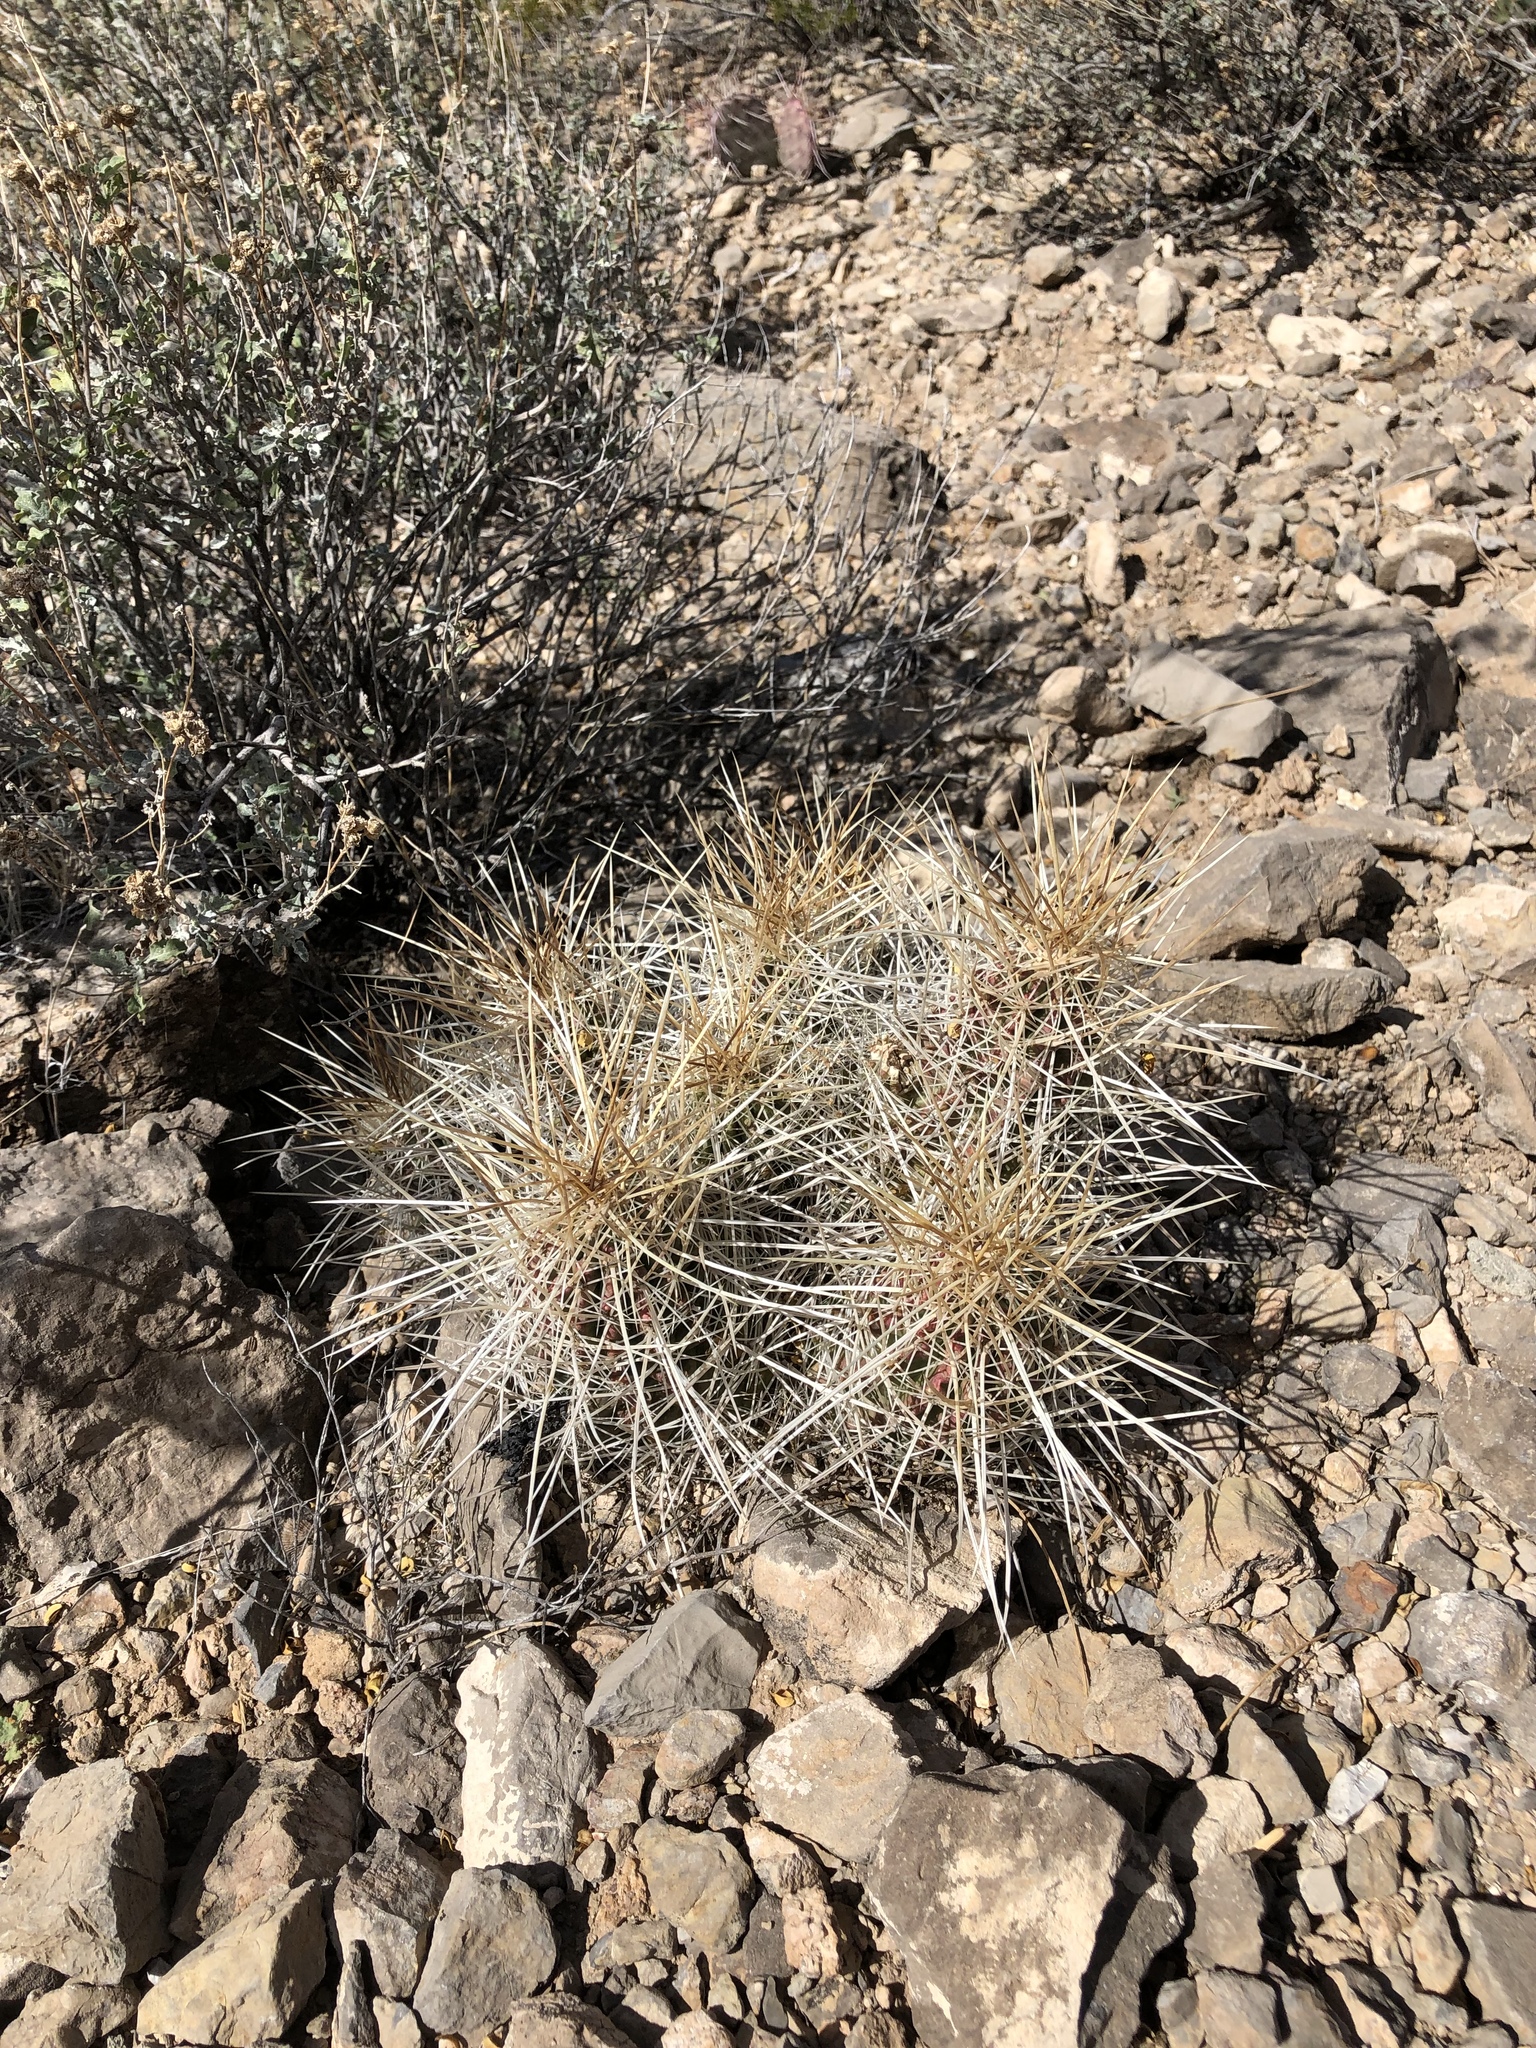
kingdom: Plantae
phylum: Tracheophyta
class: Magnoliopsida
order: Caryophyllales
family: Cactaceae
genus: Echinocereus
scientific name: Echinocereus stramineus
